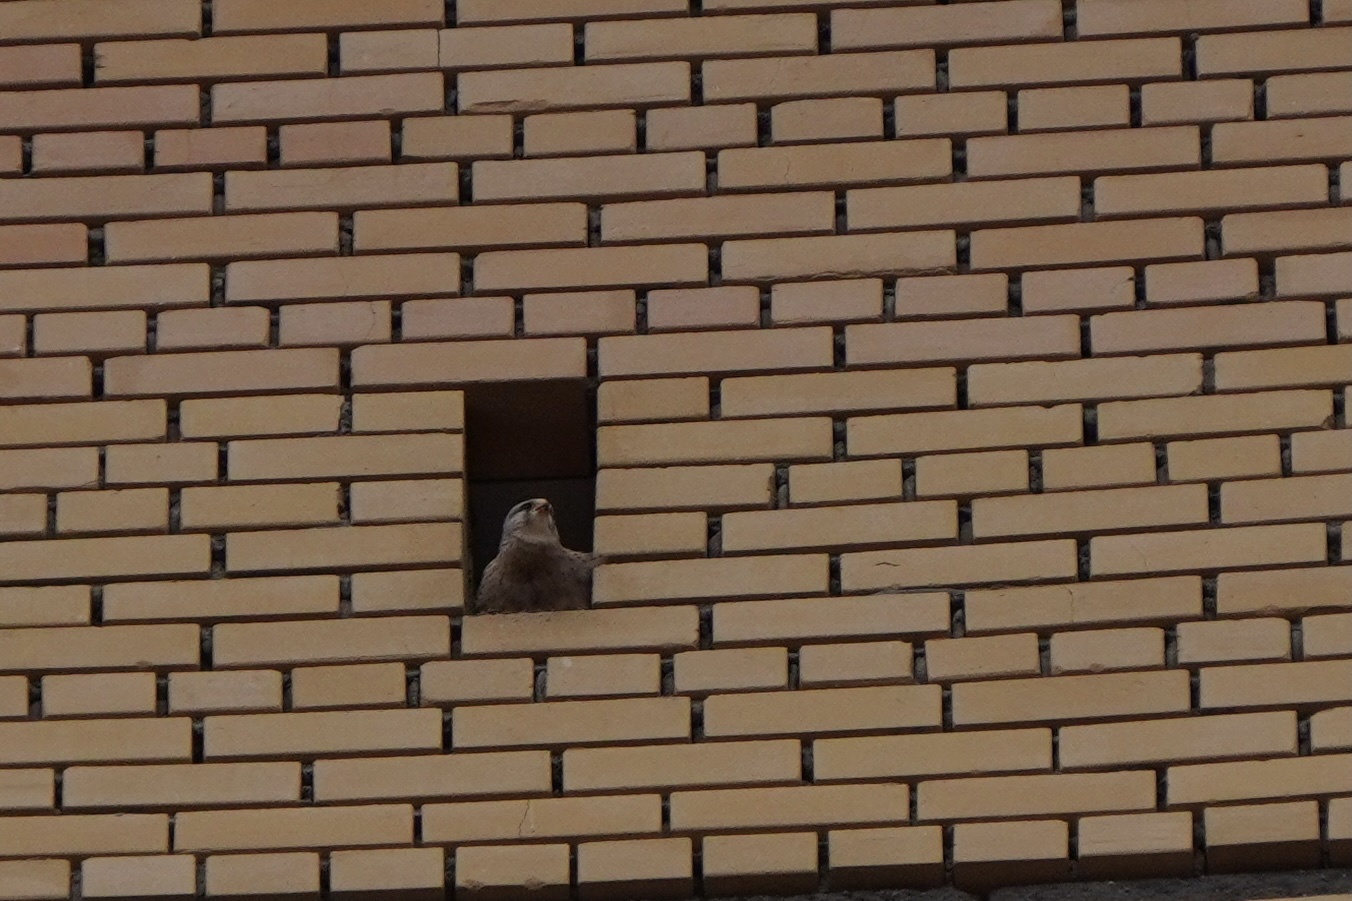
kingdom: Animalia
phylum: Chordata
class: Aves
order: Falconiformes
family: Falconidae
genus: Falco
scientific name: Falco tinnunculus
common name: Common kestrel
